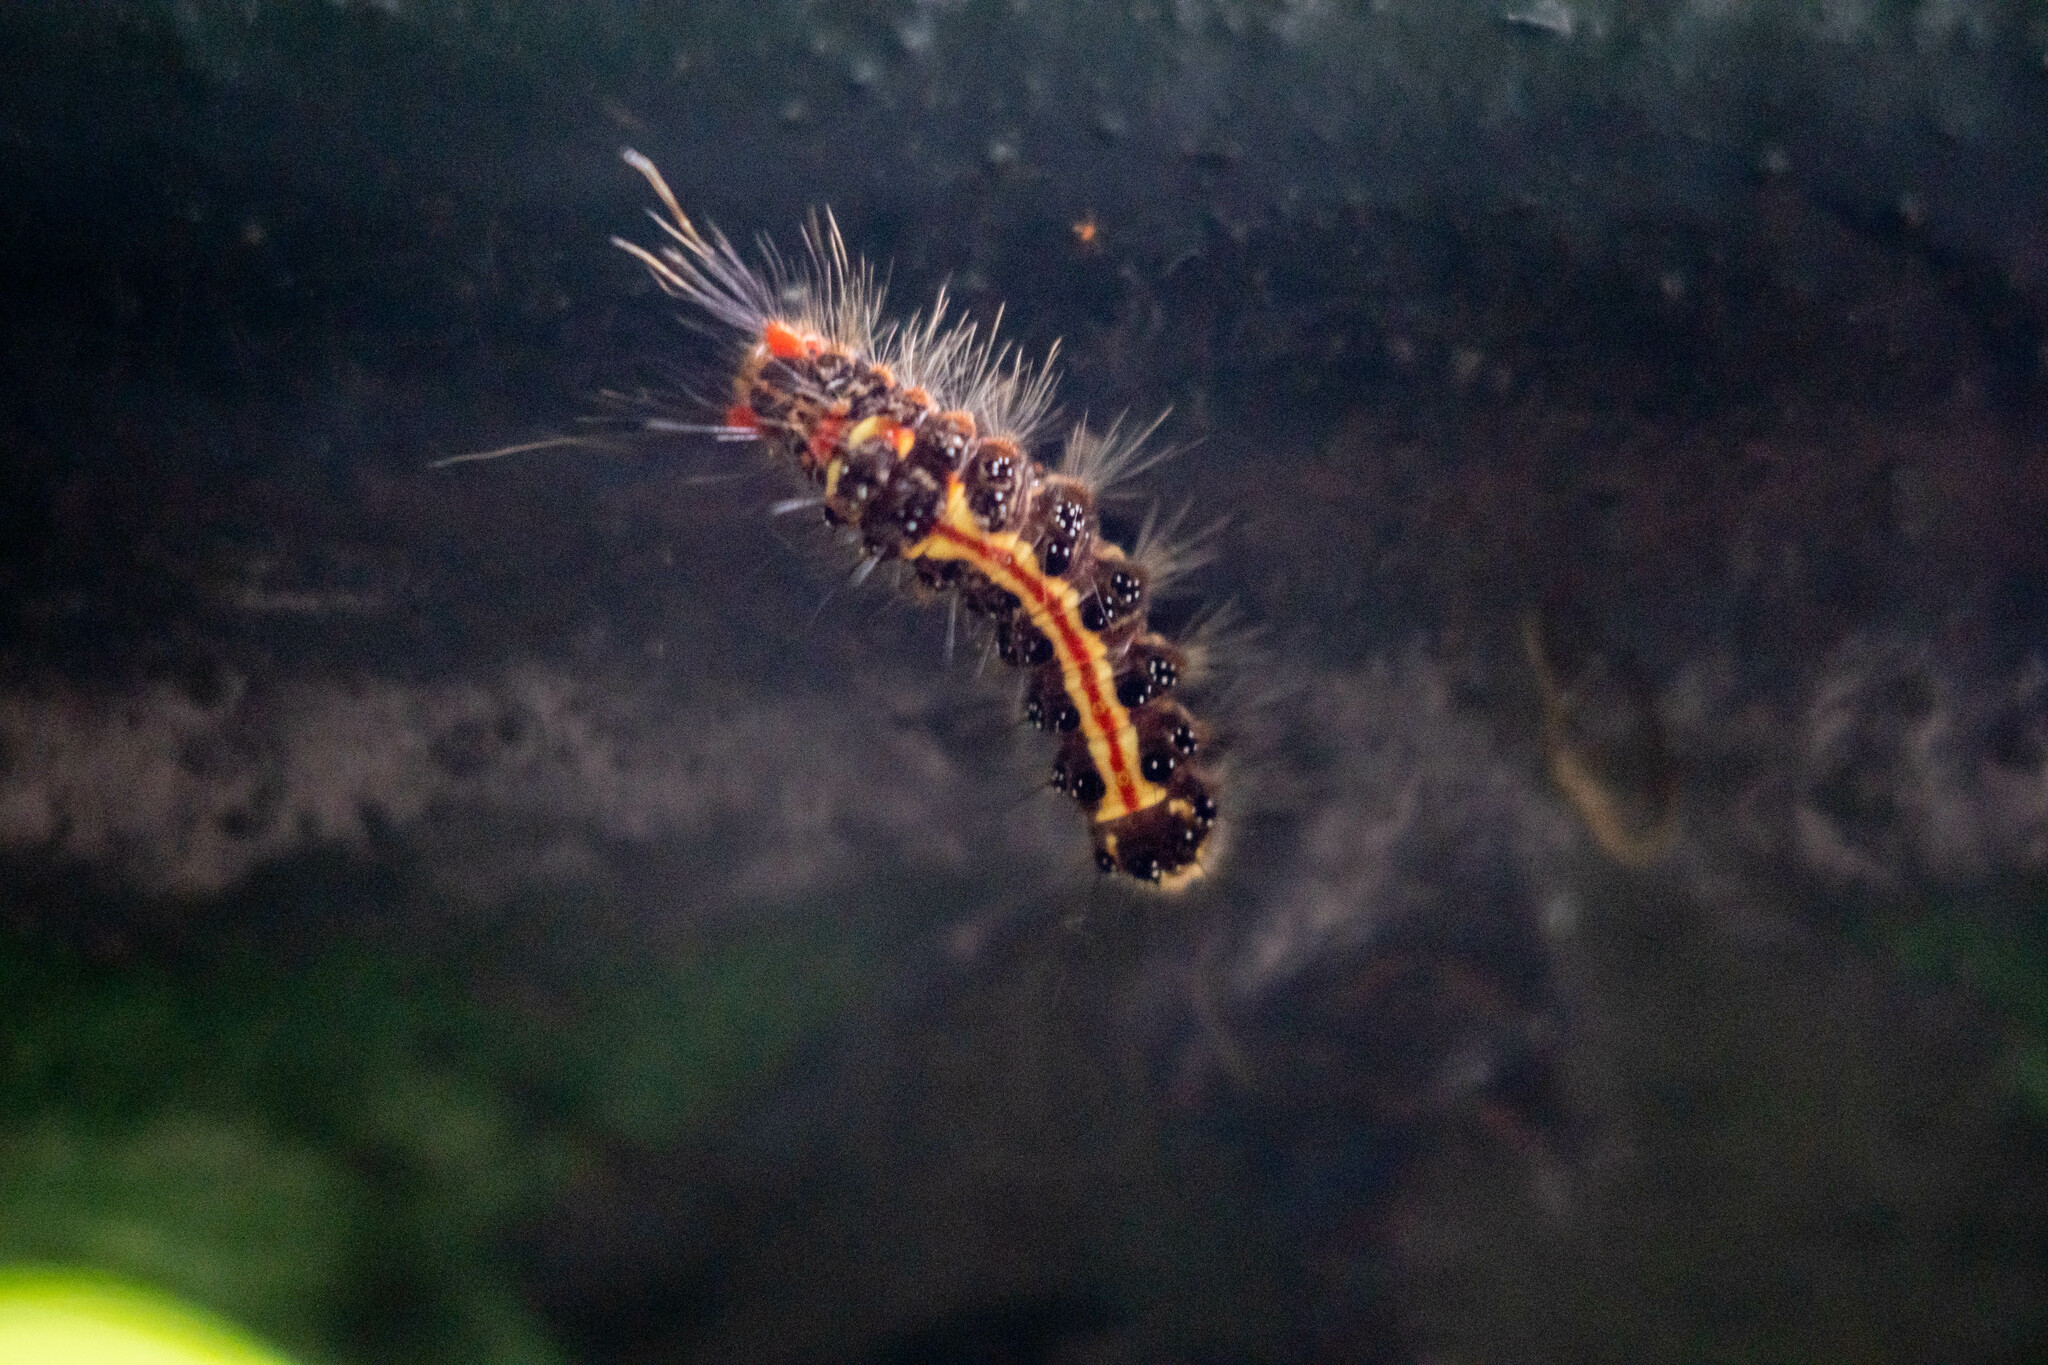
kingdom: Animalia
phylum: Arthropoda
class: Insecta
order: Lepidoptera
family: Erebidae
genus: Orvasca
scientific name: Orvasca subnotata
